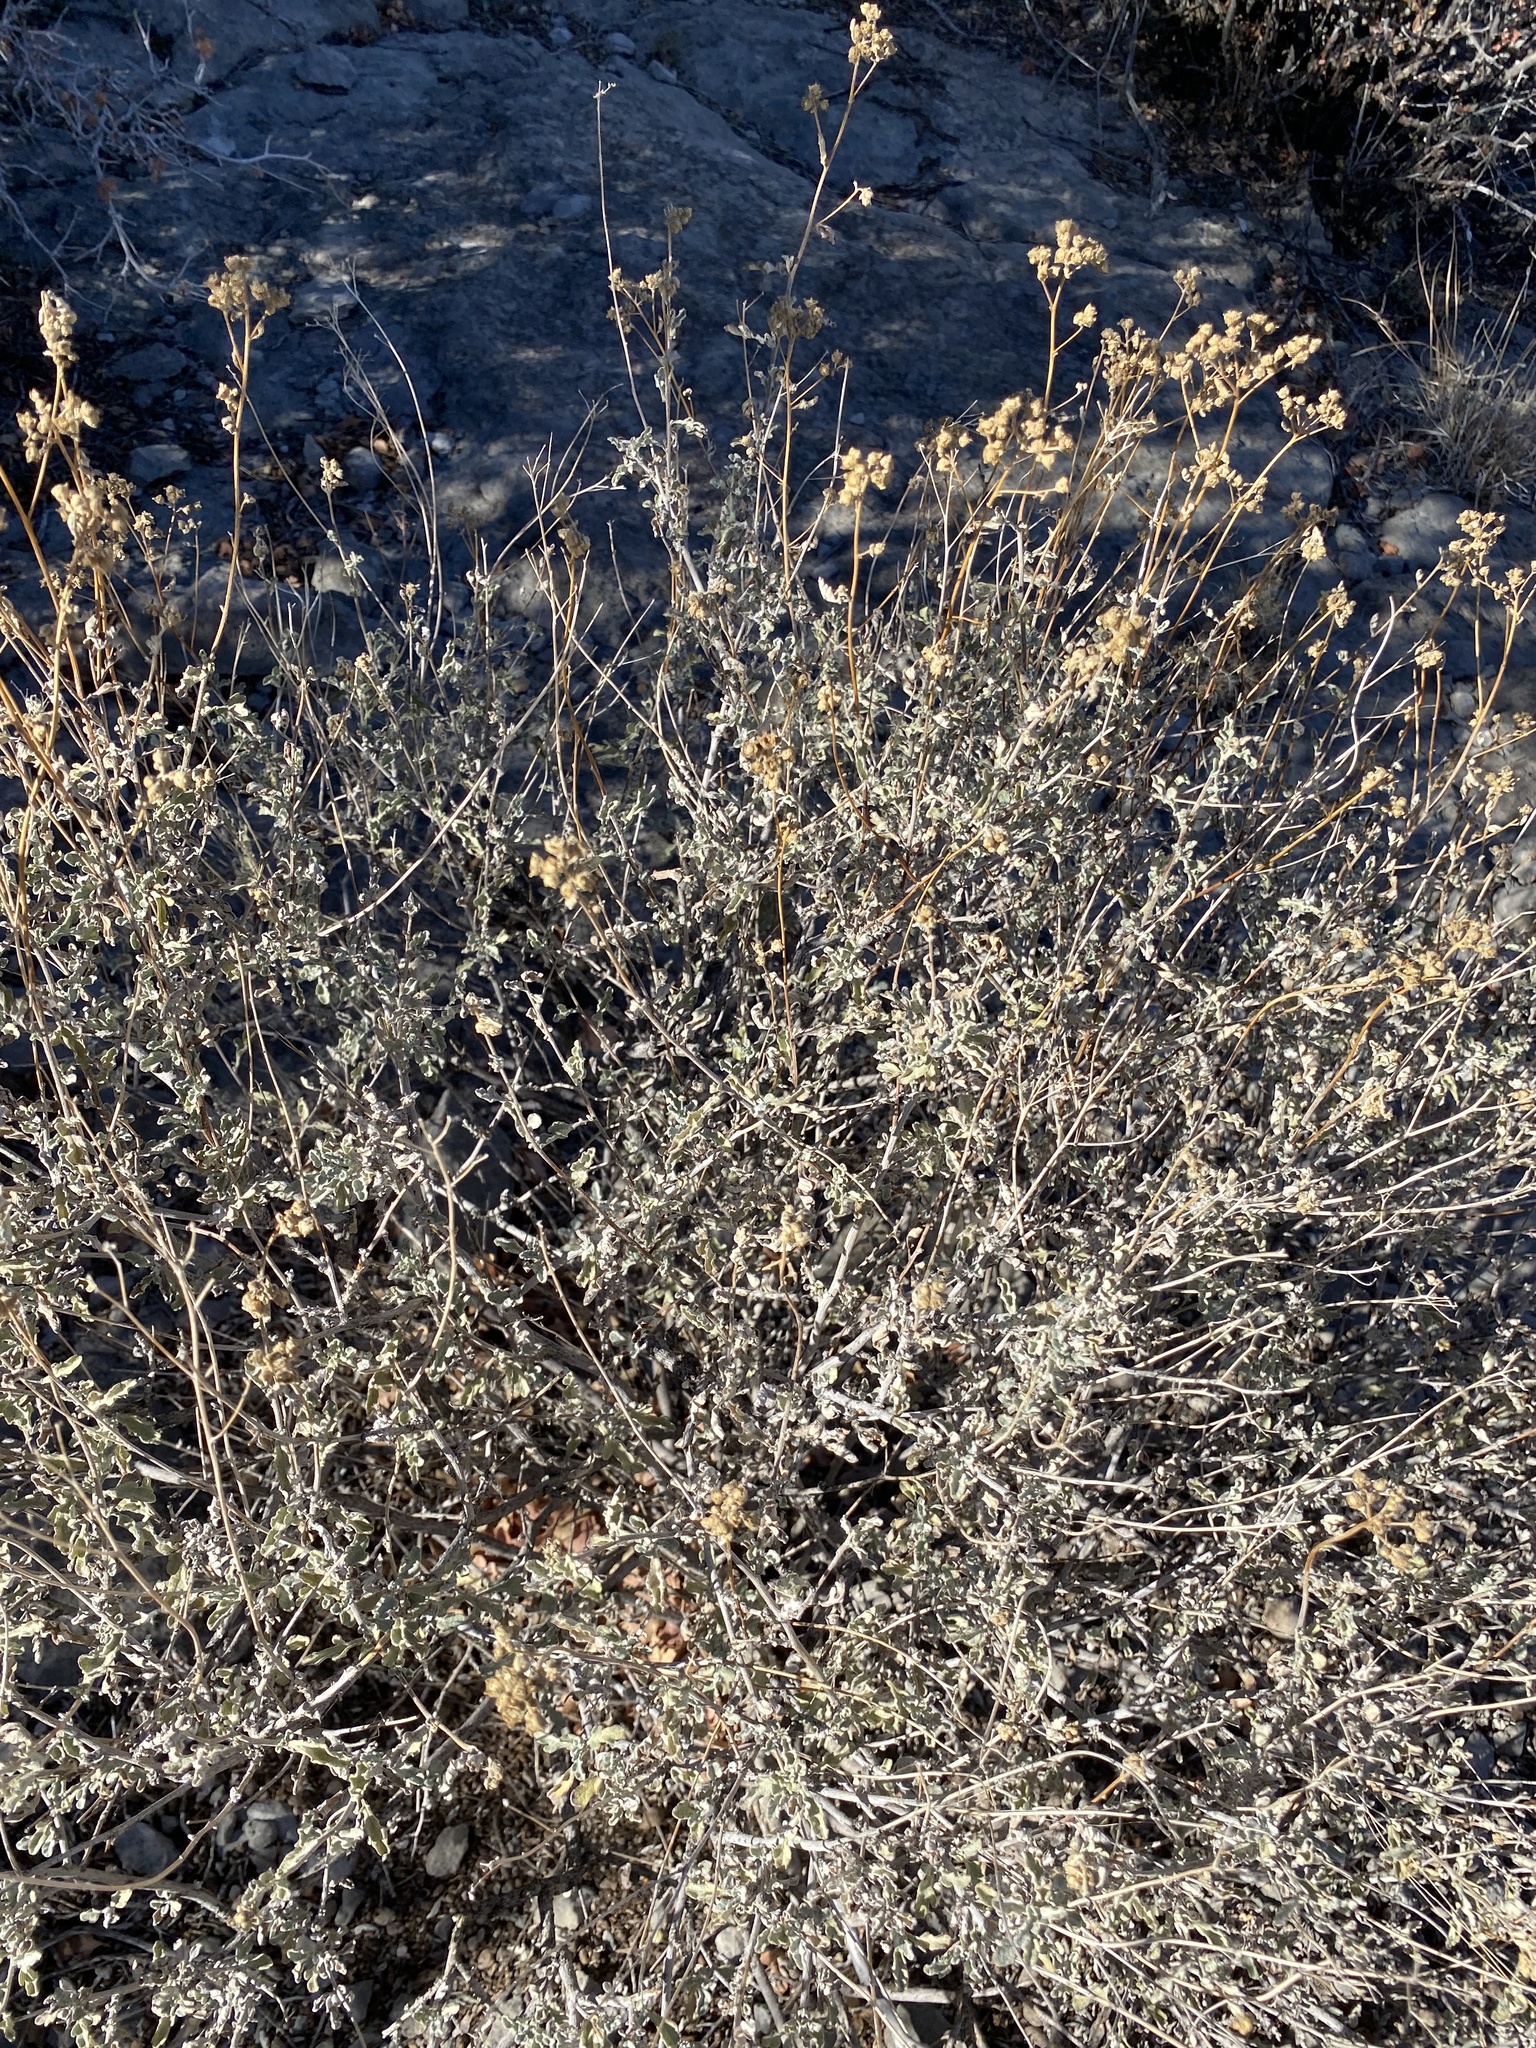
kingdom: Plantae
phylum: Tracheophyta
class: Magnoliopsida
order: Asterales
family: Asteraceae
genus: Parthenium
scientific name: Parthenium incanum
